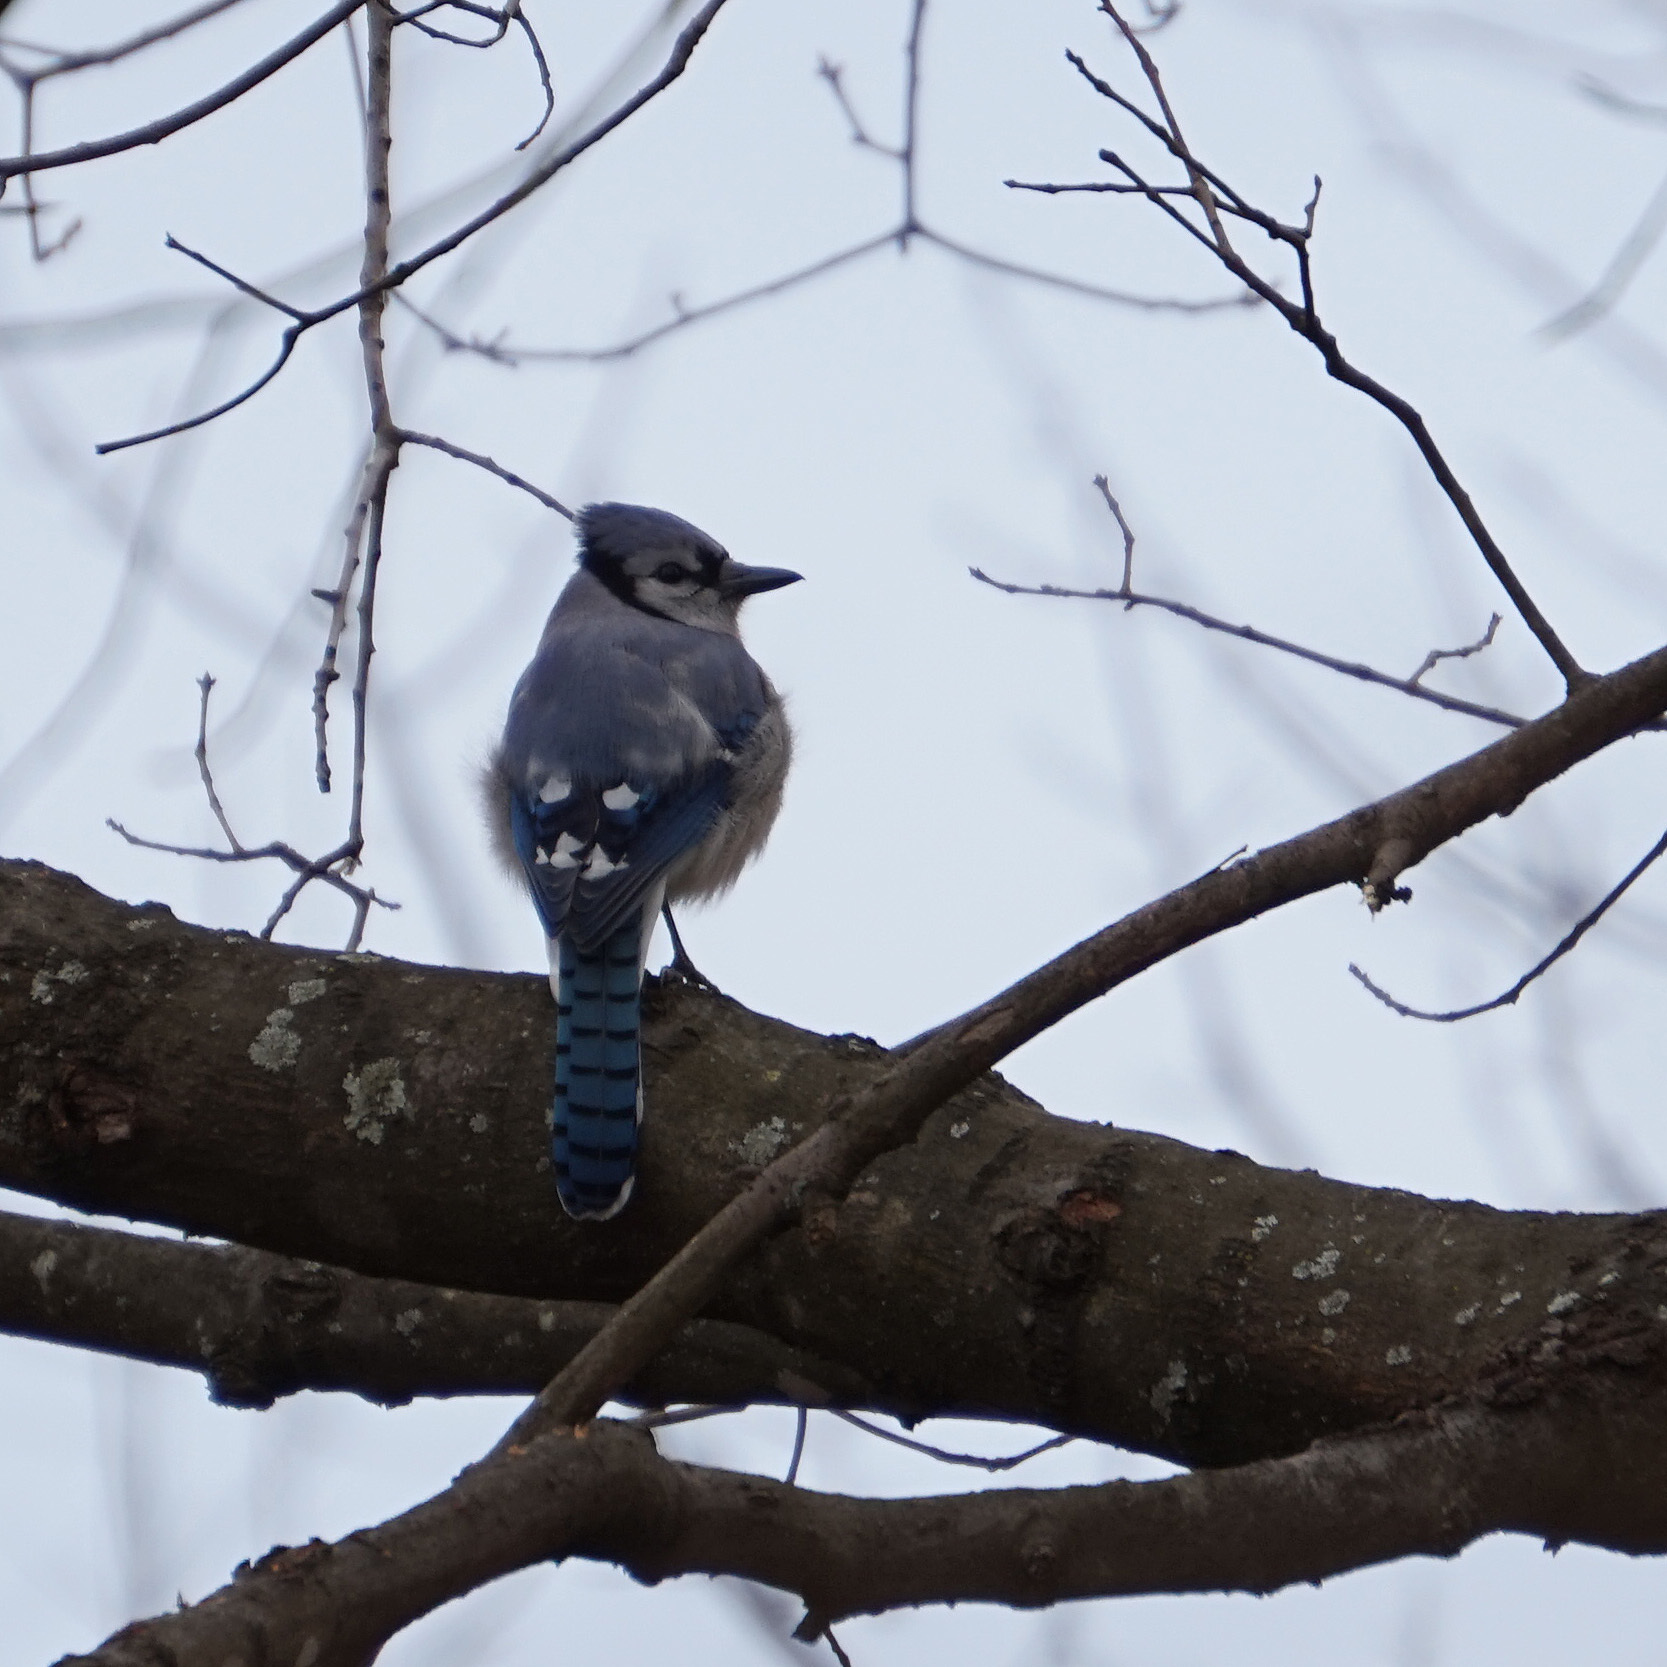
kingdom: Animalia
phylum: Chordata
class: Aves
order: Passeriformes
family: Corvidae
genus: Cyanocitta
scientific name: Cyanocitta cristata
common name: Blue jay
